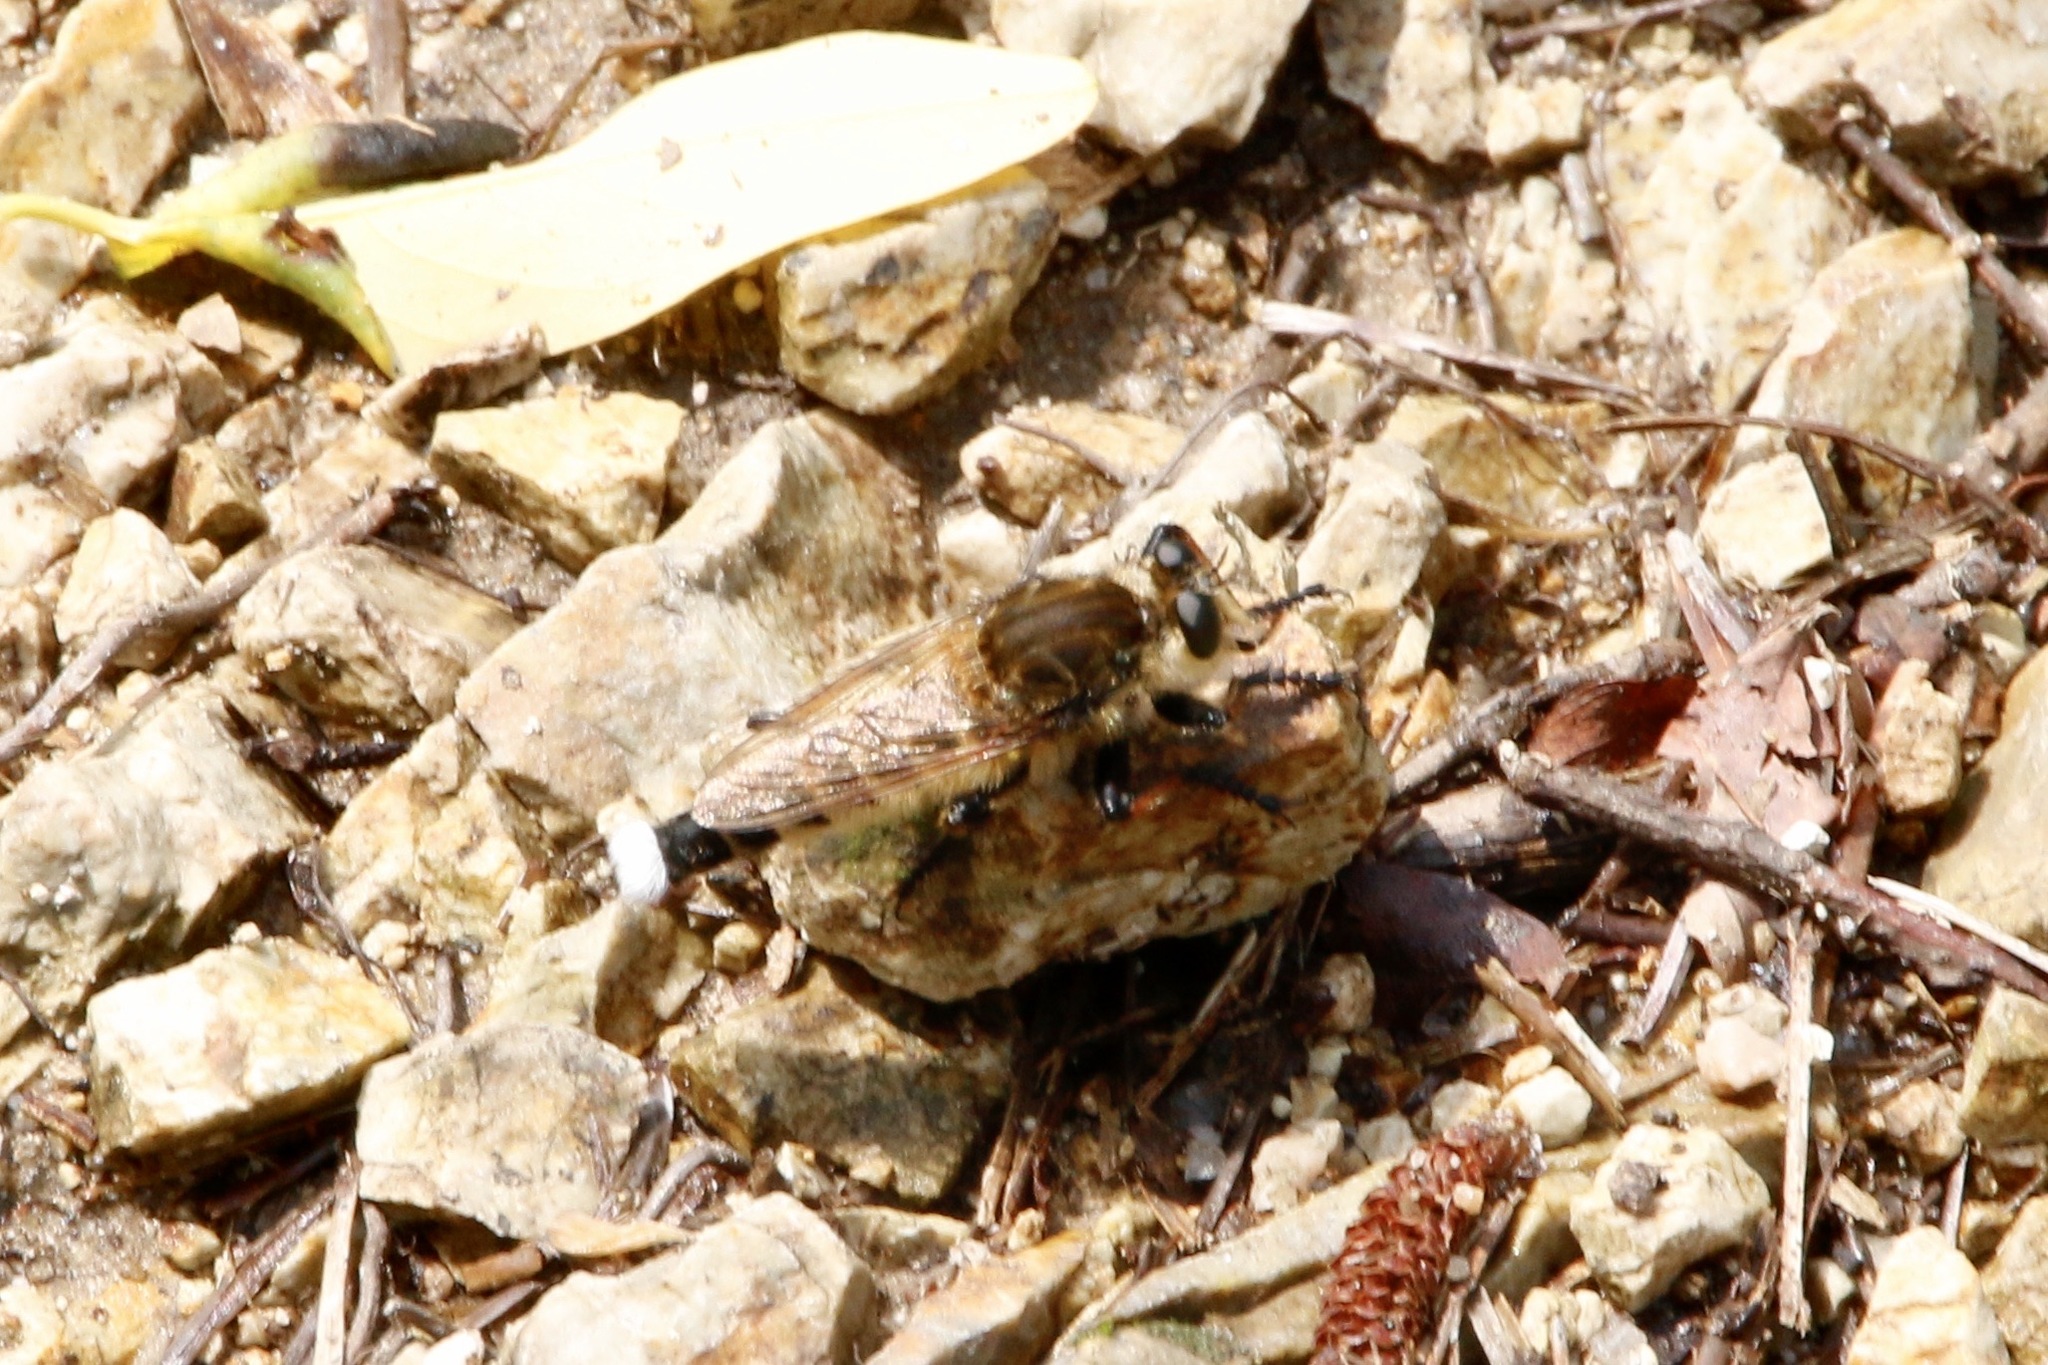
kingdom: Animalia
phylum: Arthropoda
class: Insecta
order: Diptera
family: Asilidae
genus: Promachus
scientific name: Promachus yesonicus
